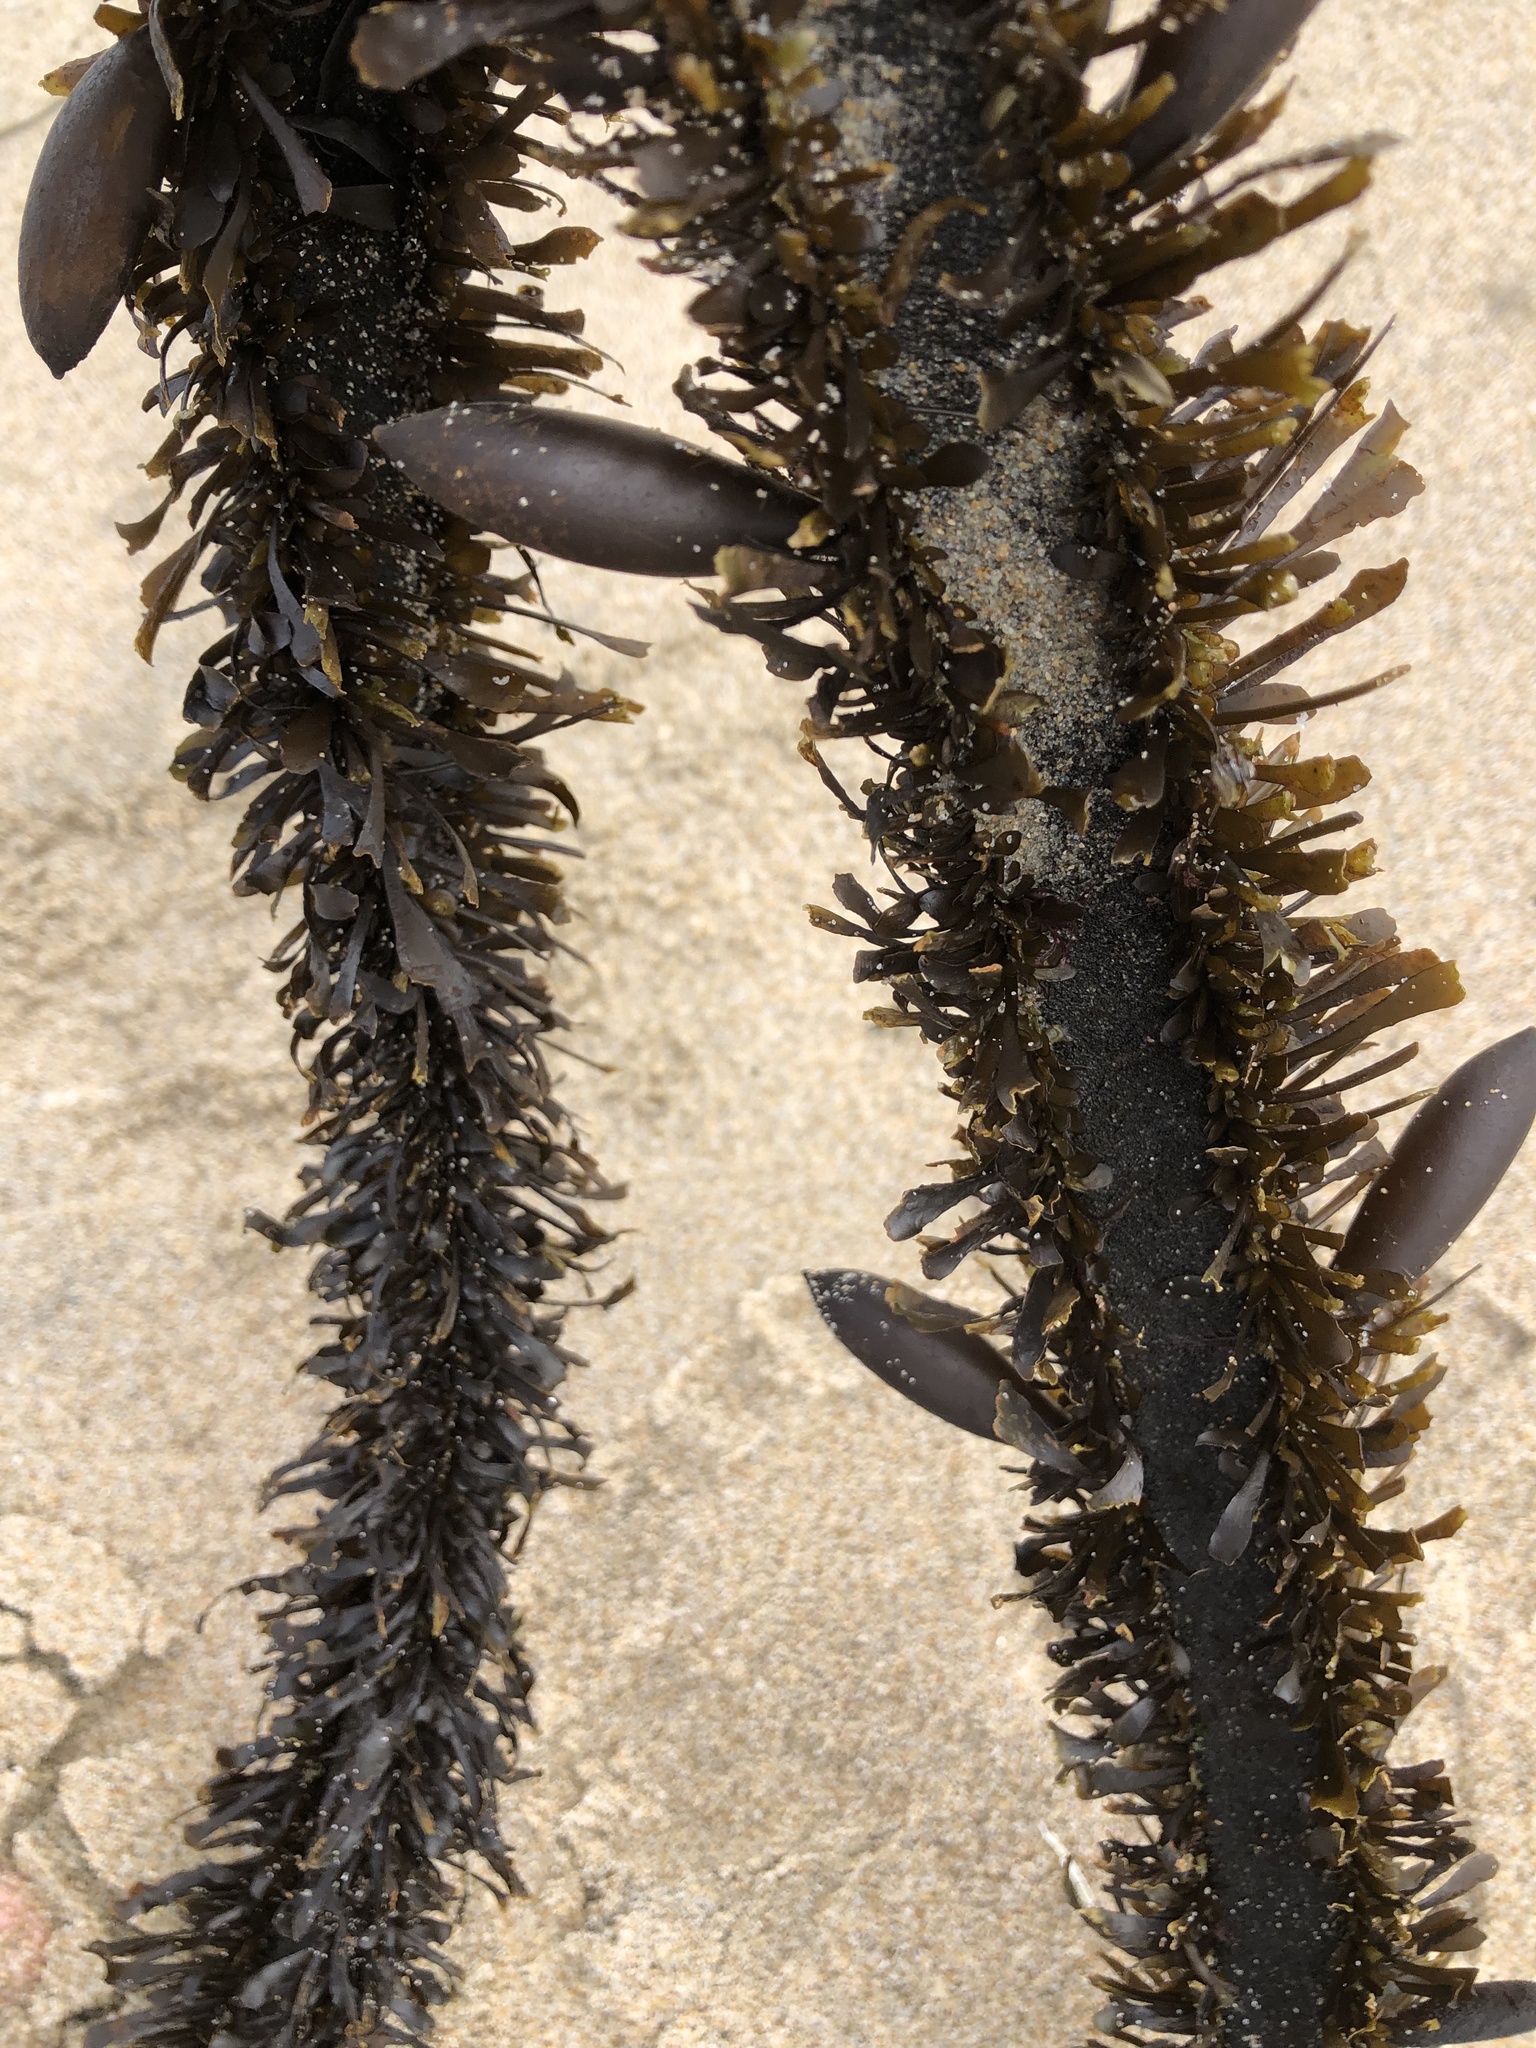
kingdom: Chromista
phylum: Ochrophyta
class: Phaeophyceae
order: Laminariales
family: Lessoniaceae
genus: Egregia
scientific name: Egregia menziesii
